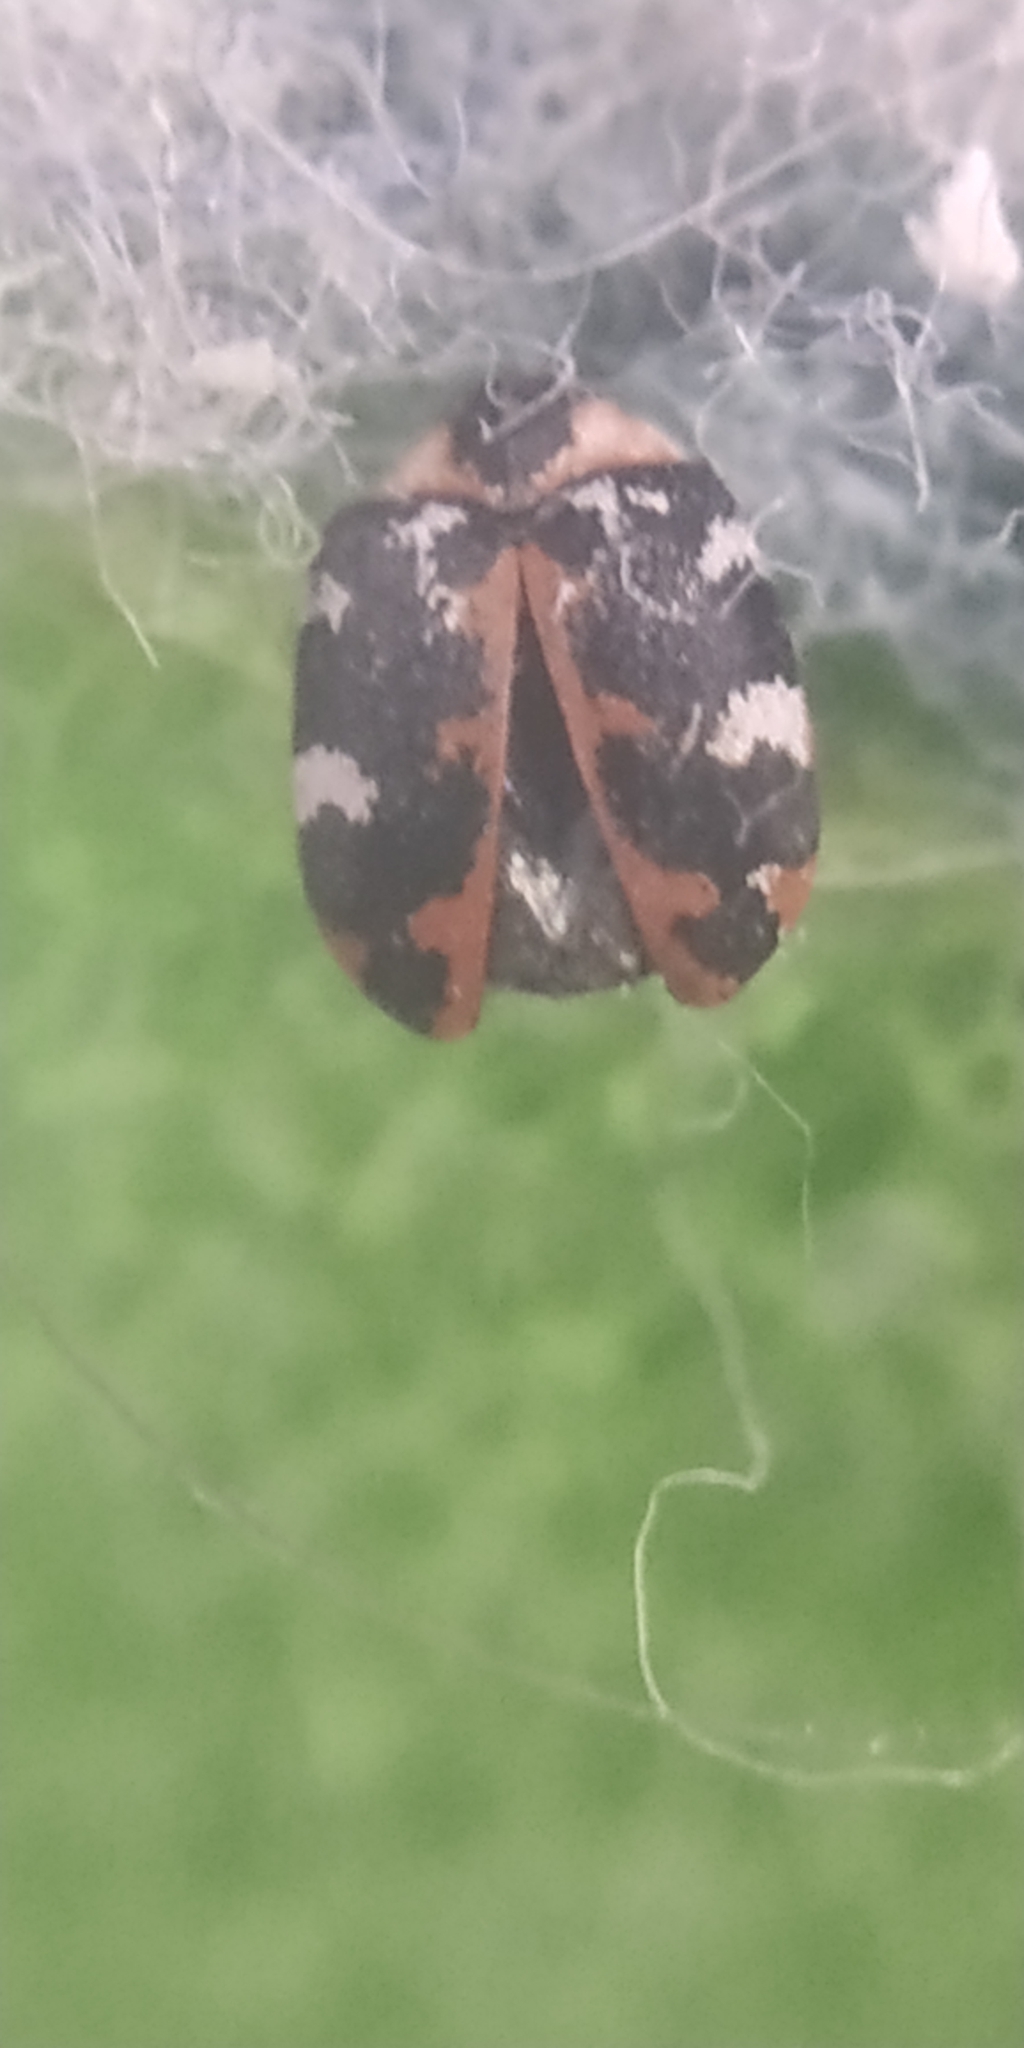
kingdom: Animalia
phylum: Arthropoda
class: Insecta
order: Coleoptera
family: Dermestidae
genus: Anthrenus
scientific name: Anthrenus scrophulariae
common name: Buffalo carpet beetle
